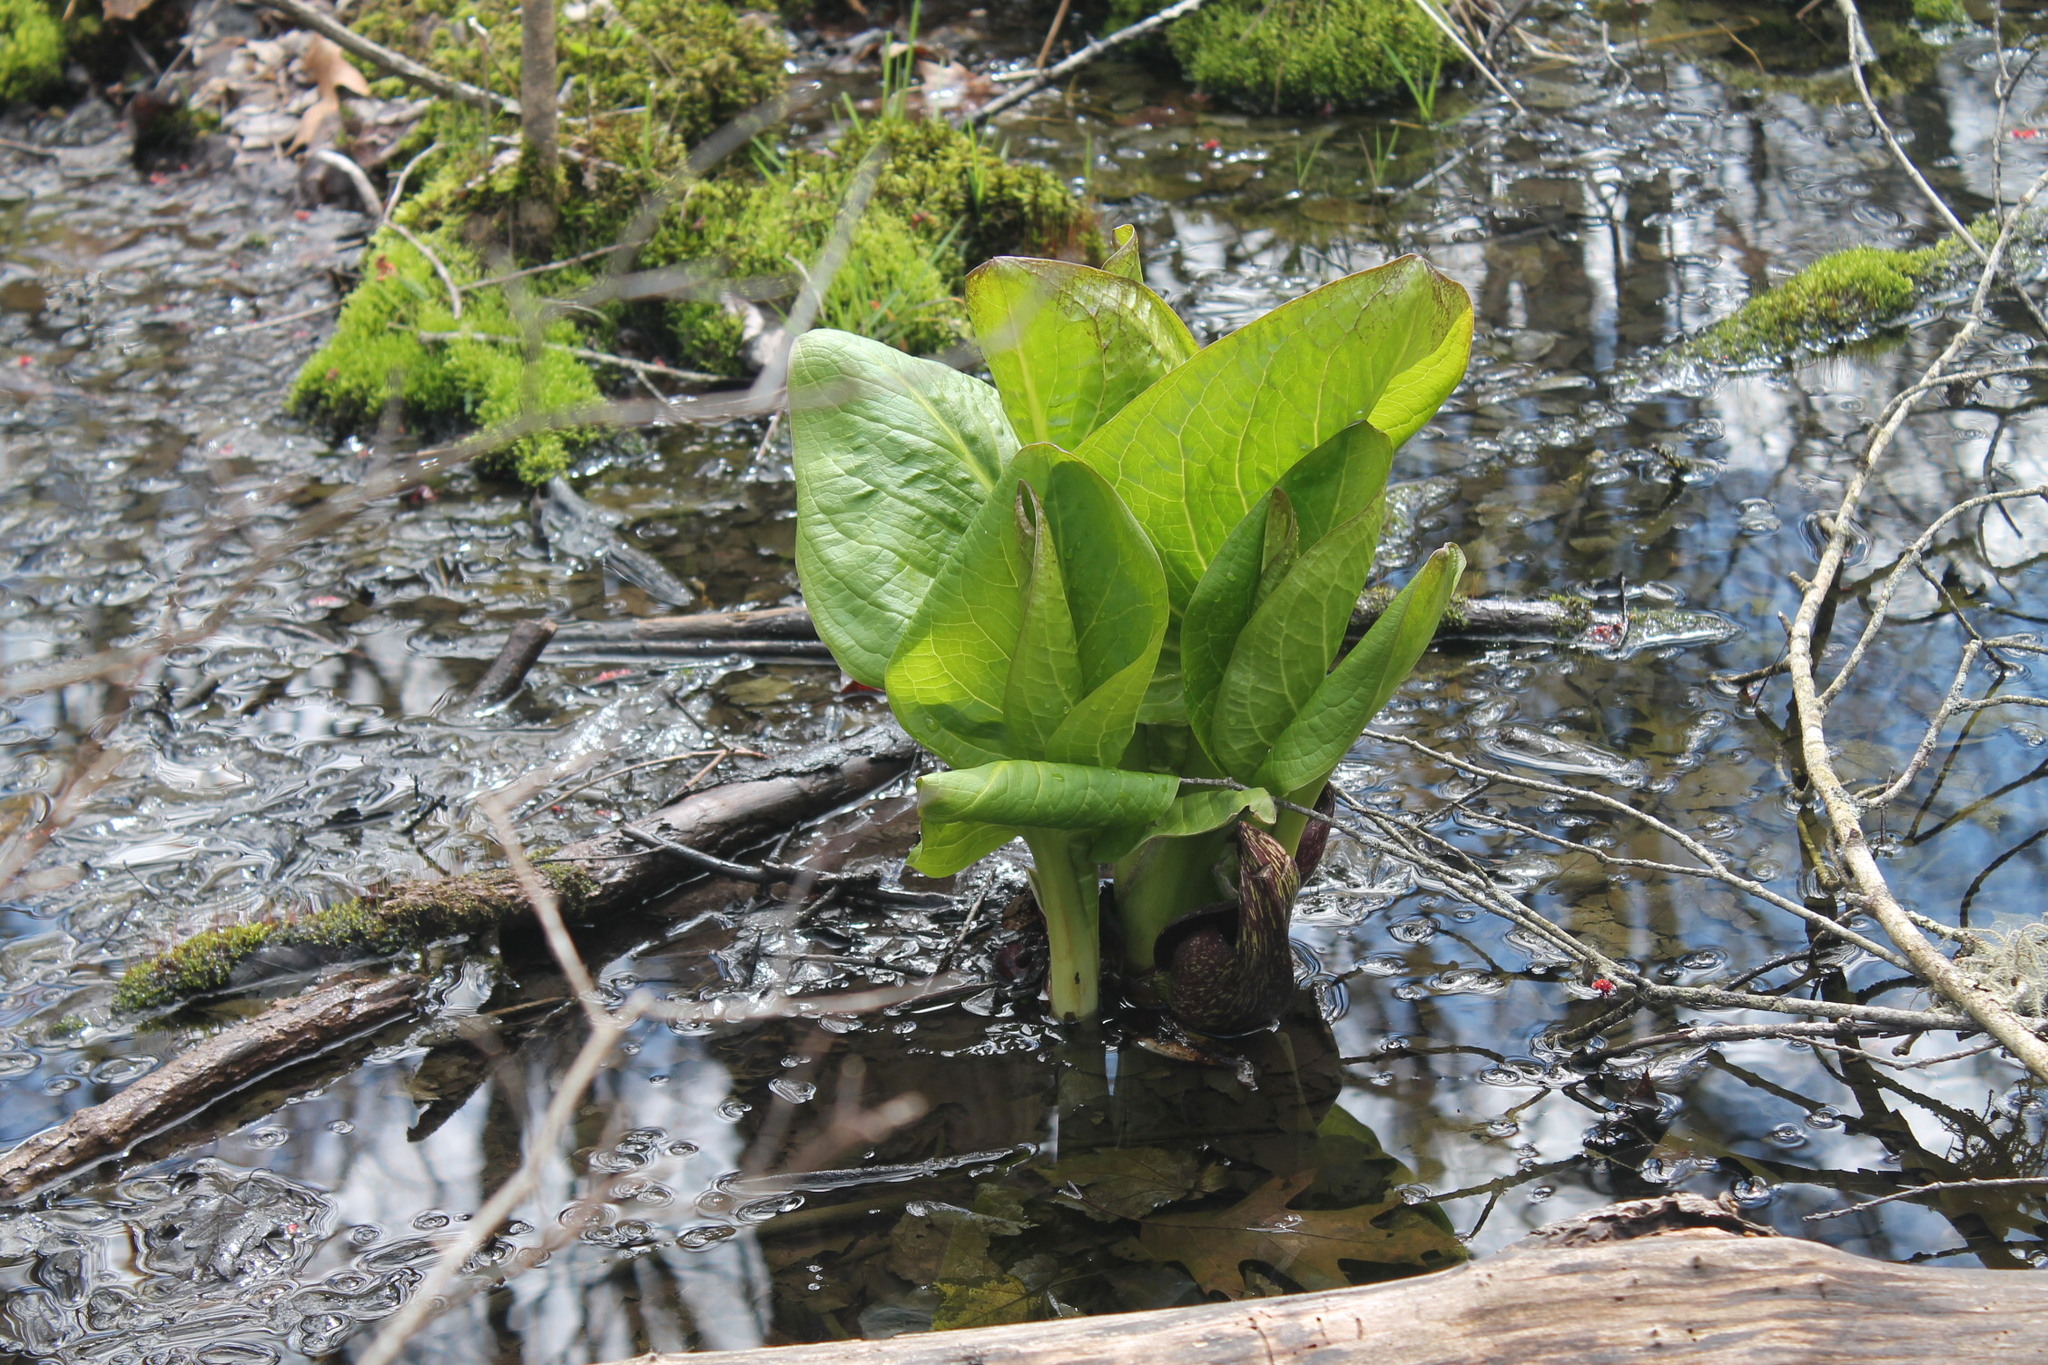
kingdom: Plantae
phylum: Tracheophyta
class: Liliopsida
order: Alismatales
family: Araceae
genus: Symplocarpus
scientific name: Symplocarpus foetidus
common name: Eastern skunk cabbage
